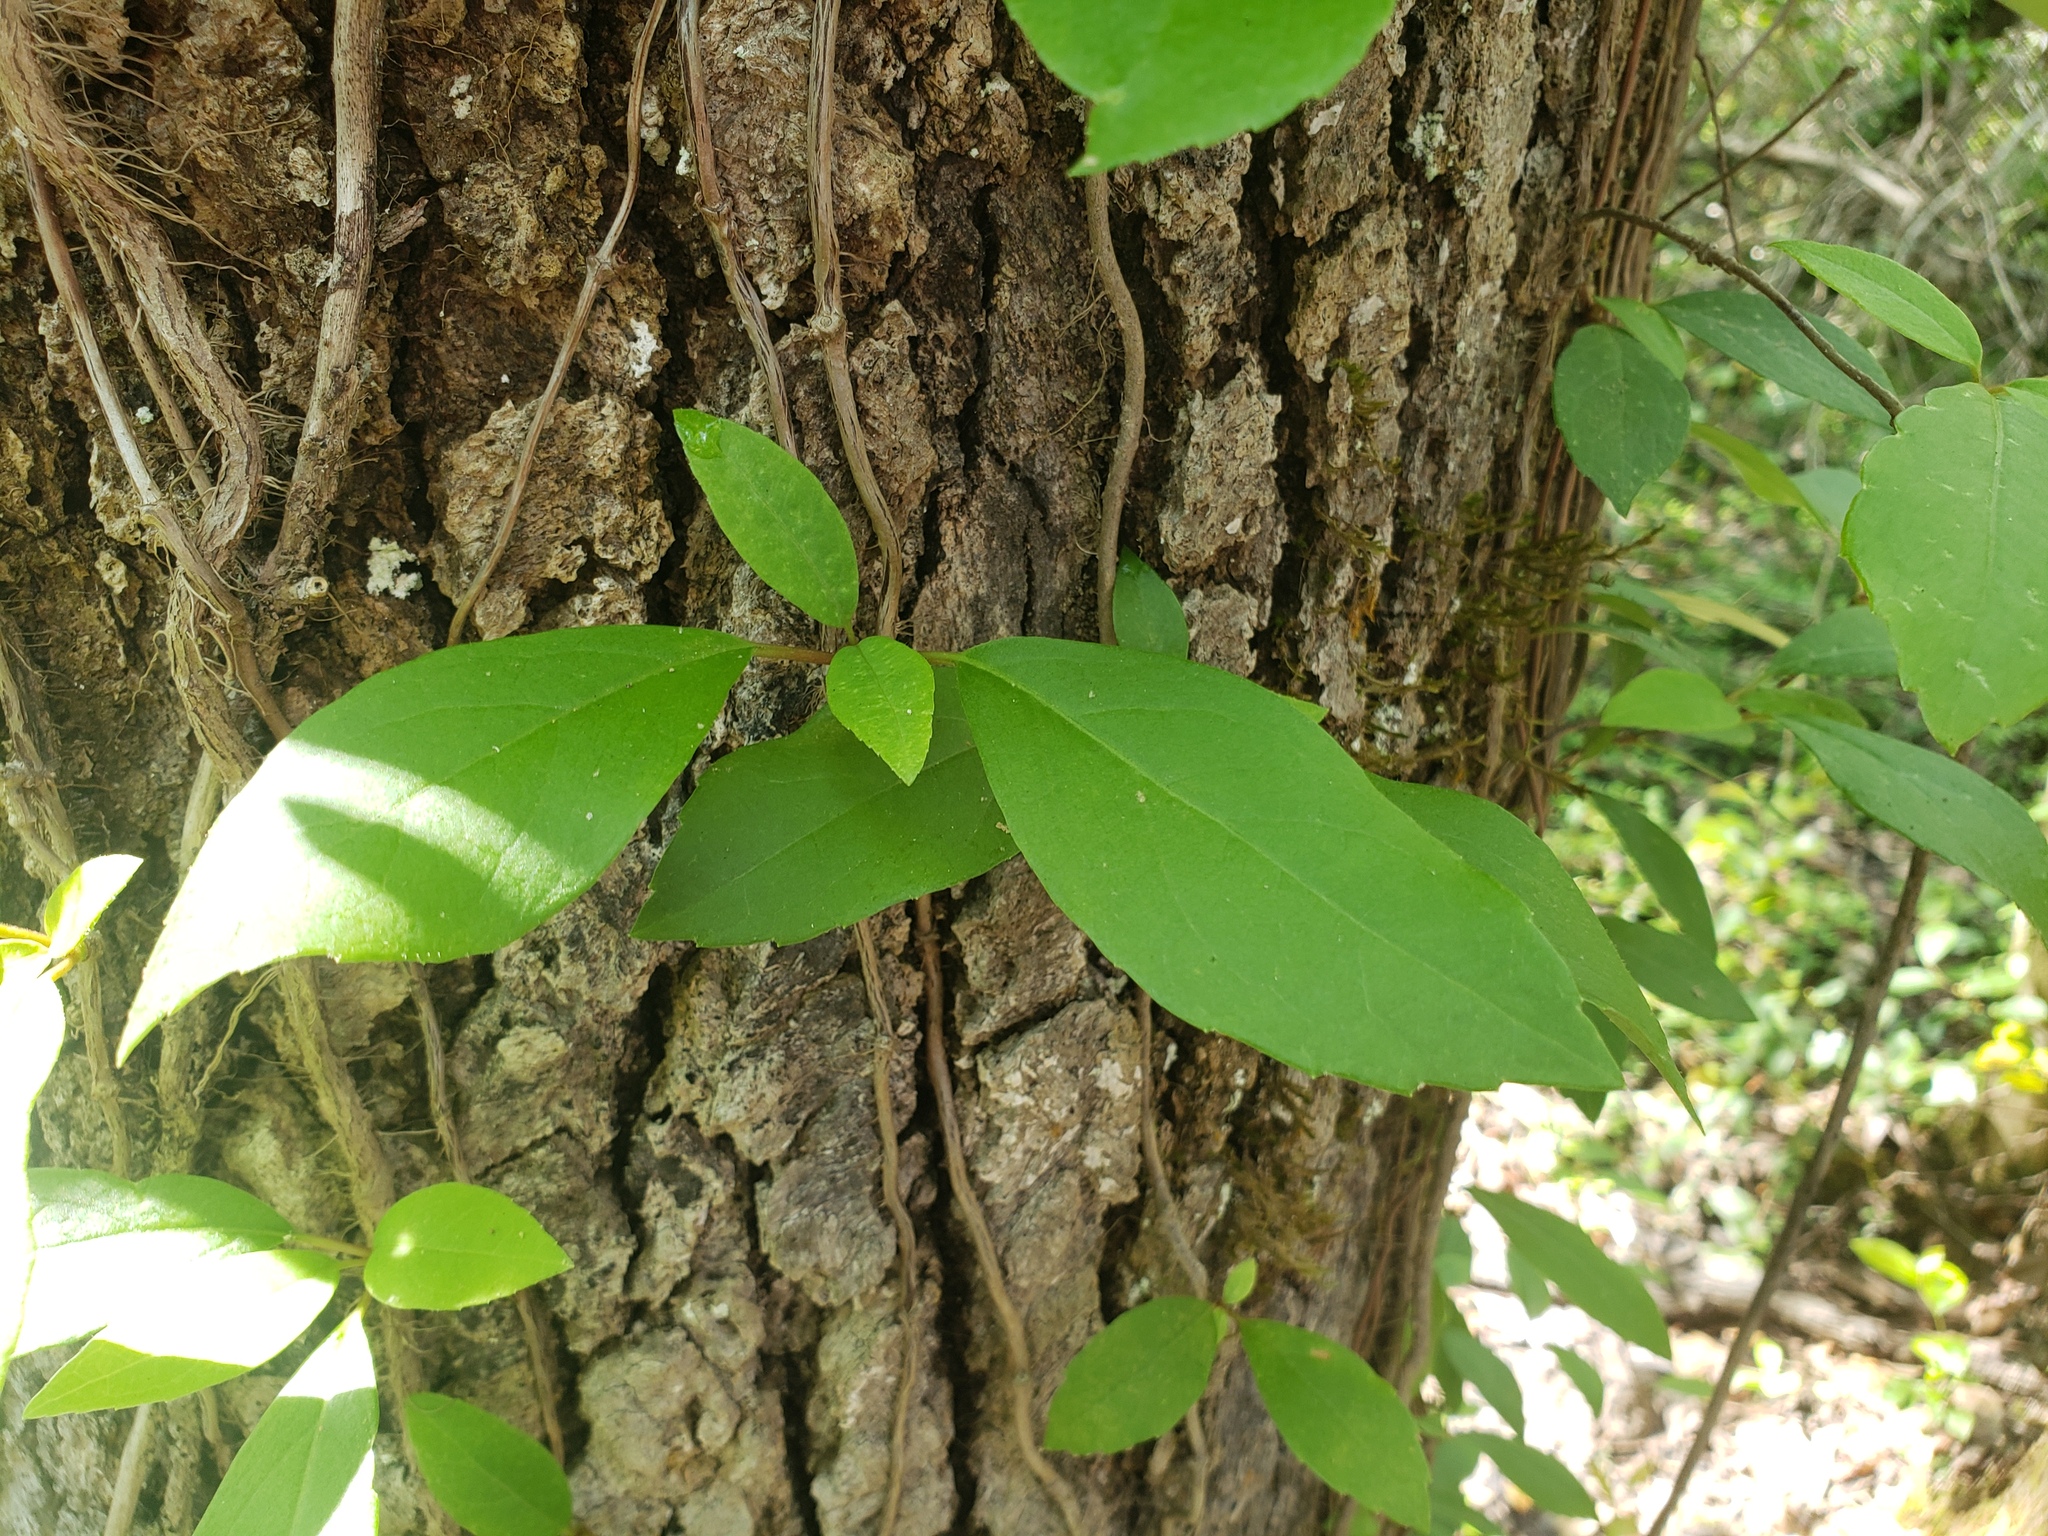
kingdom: Plantae
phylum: Tracheophyta
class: Magnoliopsida
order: Cornales
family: Hydrangeaceae
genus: Hydrangea
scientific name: Hydrangea barbara
